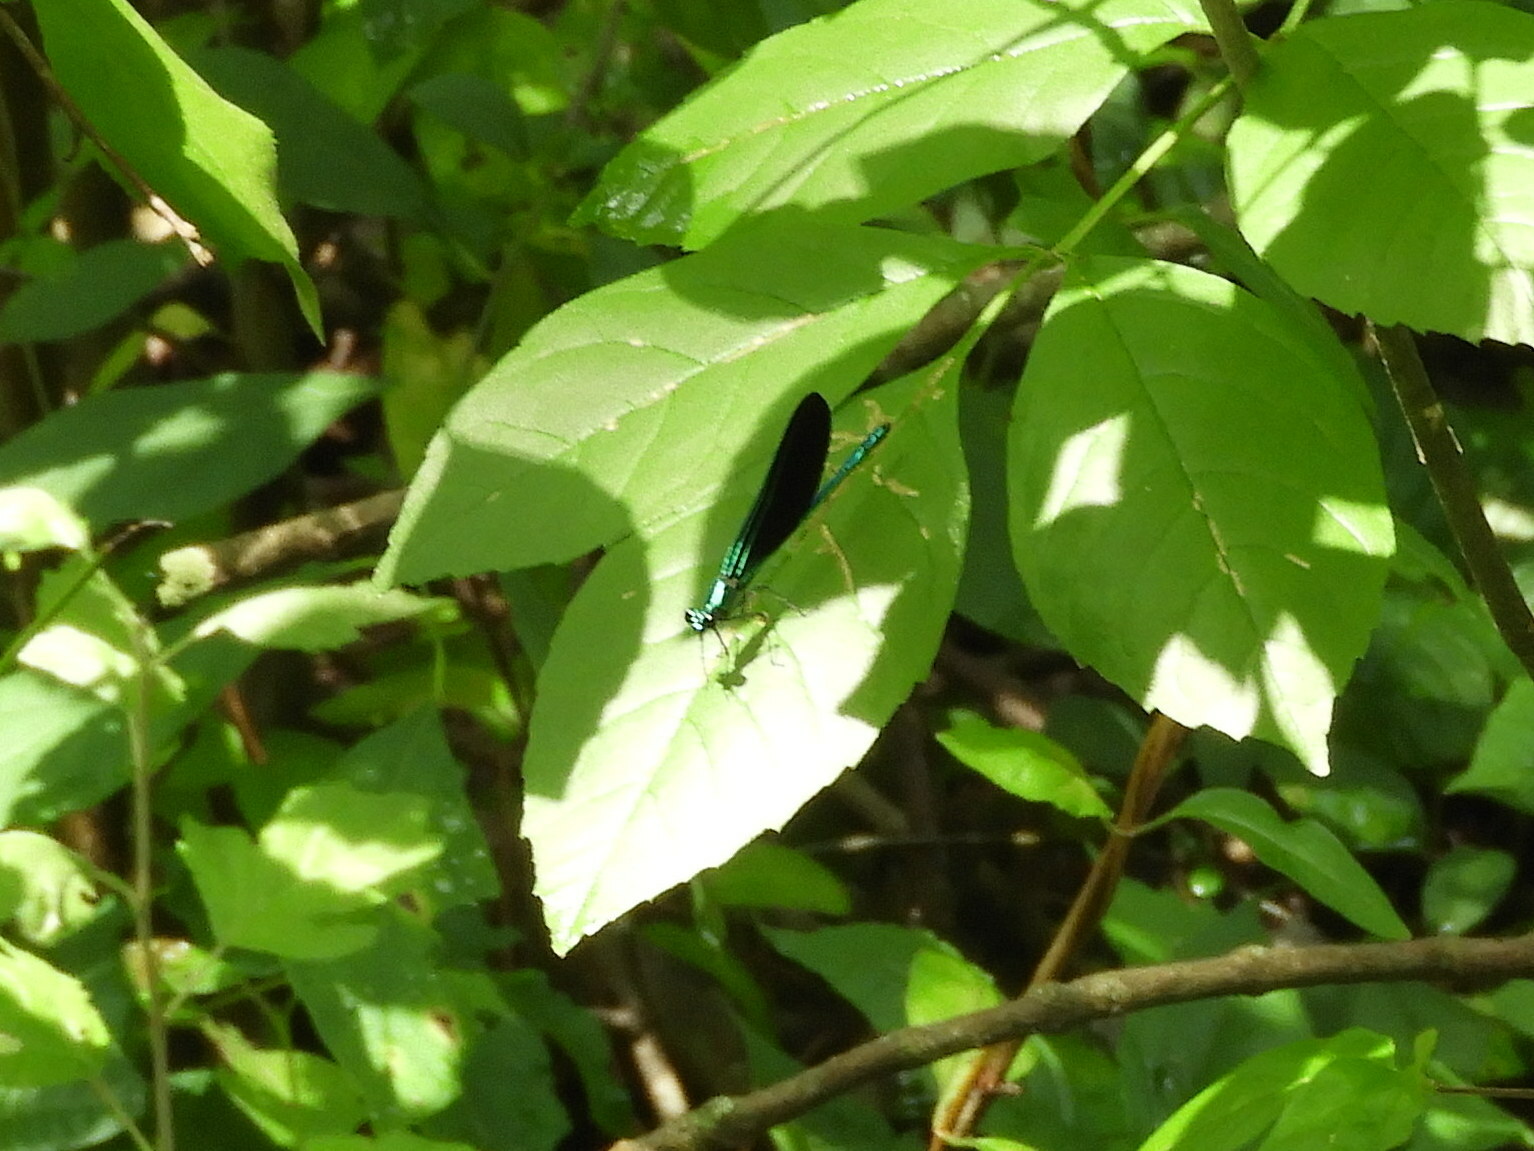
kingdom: Animalia
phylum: Arthropoda
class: Insecta
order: Odonata
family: Calopterygidae
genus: Calopteryx
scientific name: Calopteryx maculata
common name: Ebony jewelwing
